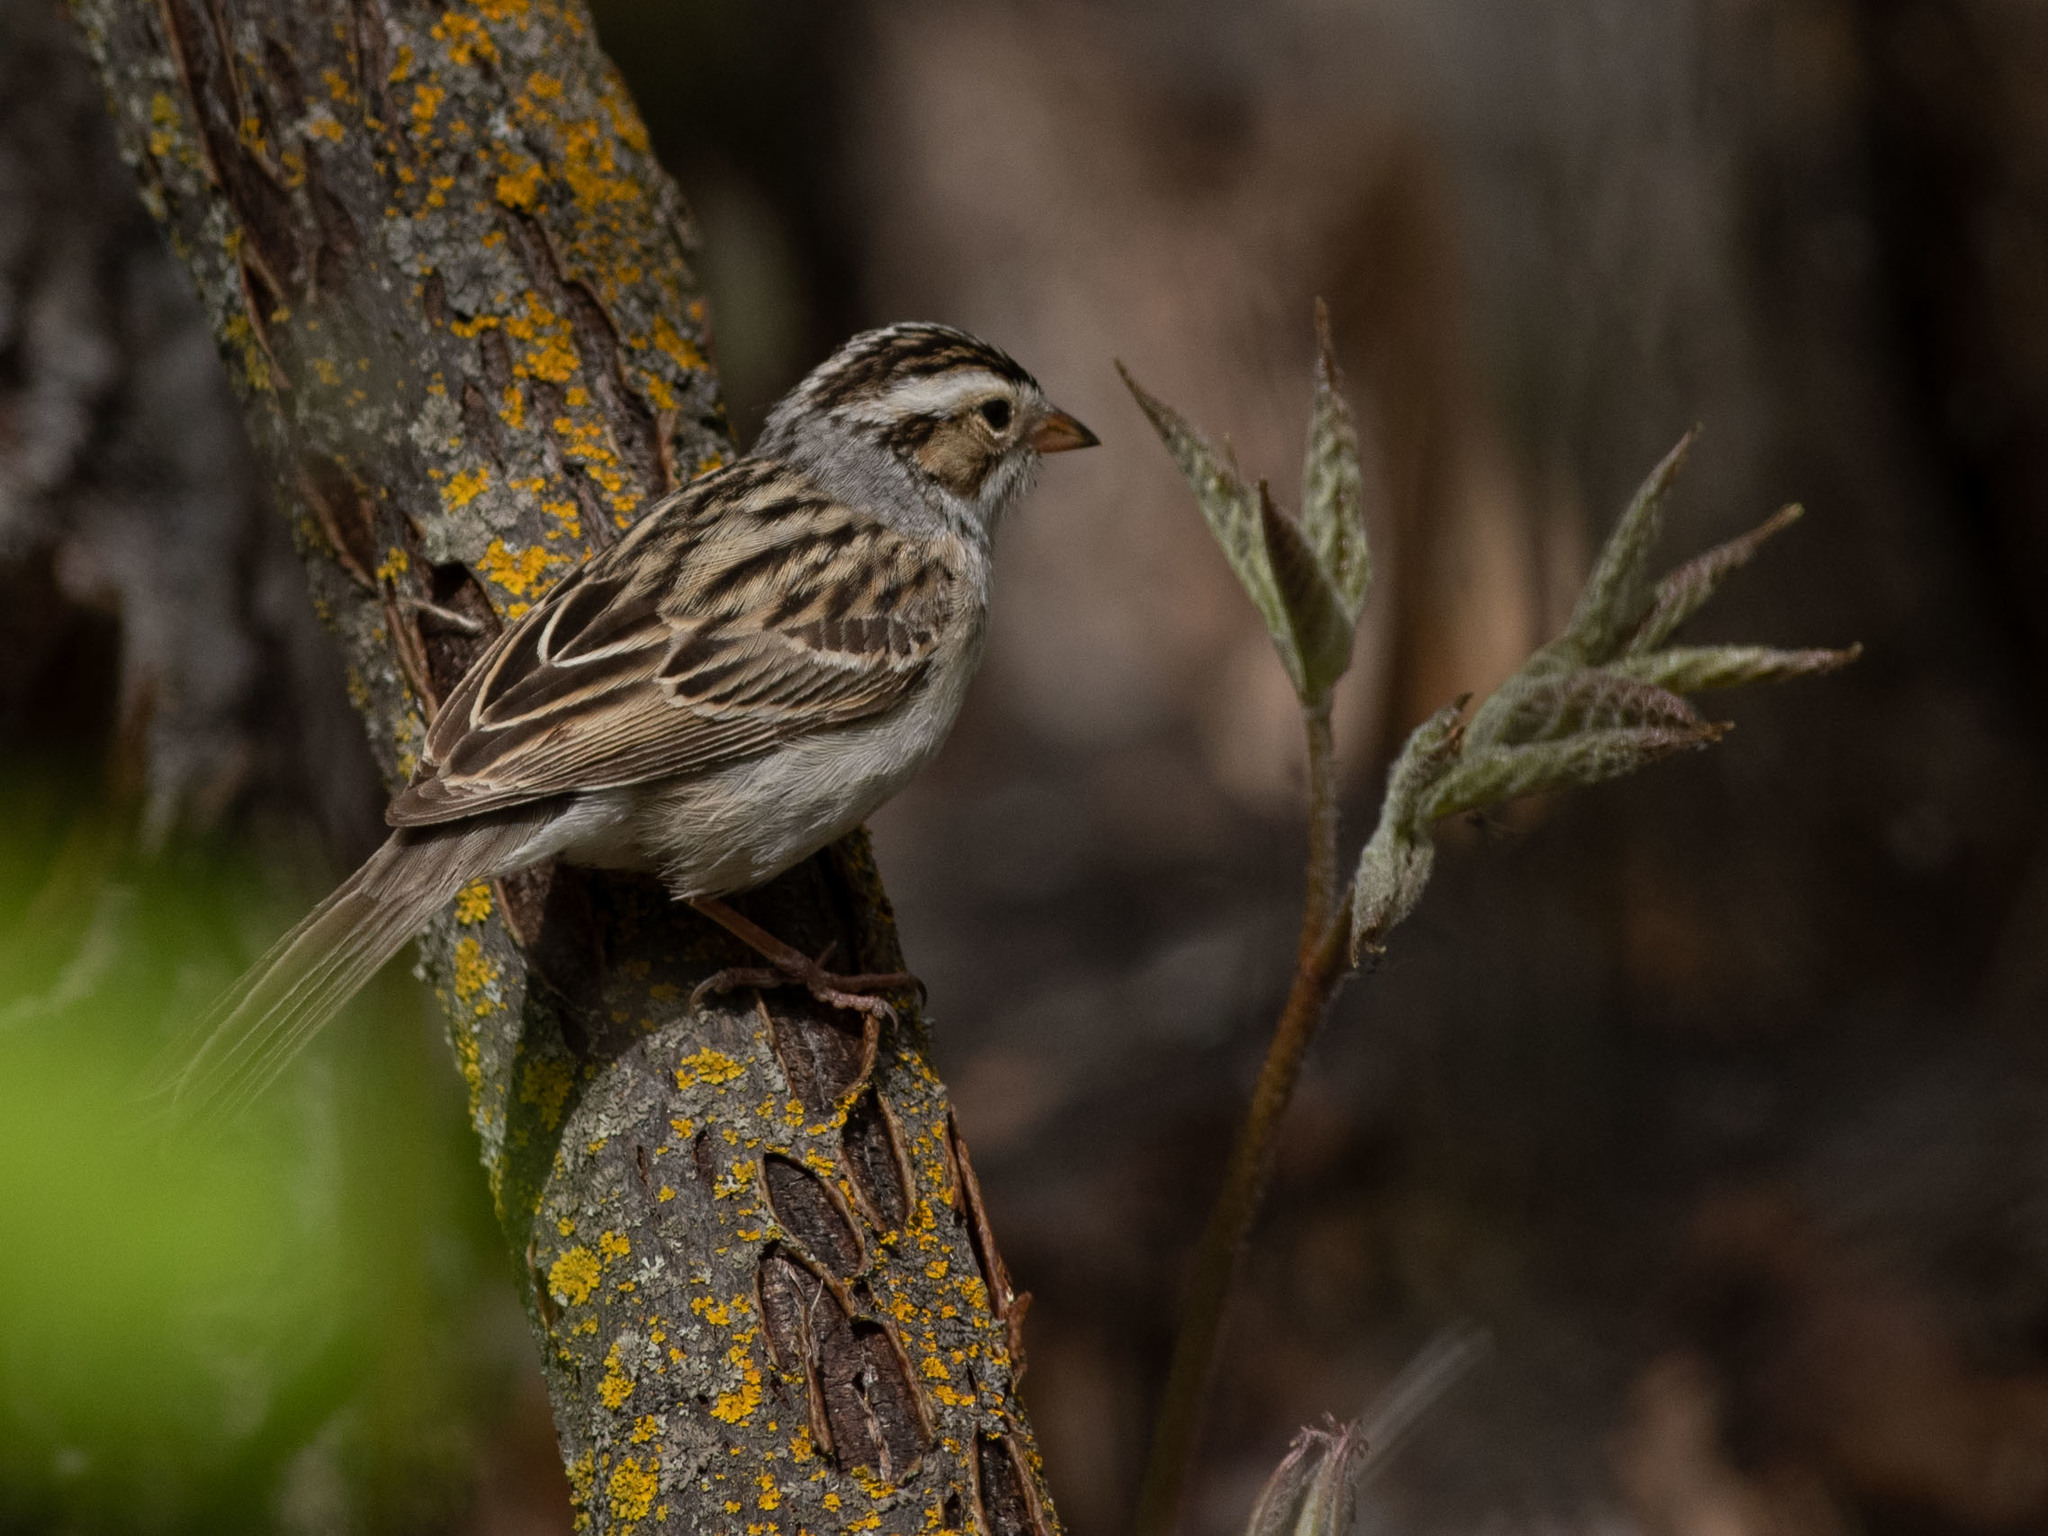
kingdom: Animalia
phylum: Chordata
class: Aves
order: Passeriformes
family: Passerellidae
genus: Spizella
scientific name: Spizella pallida
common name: Clay-colored sparrow
